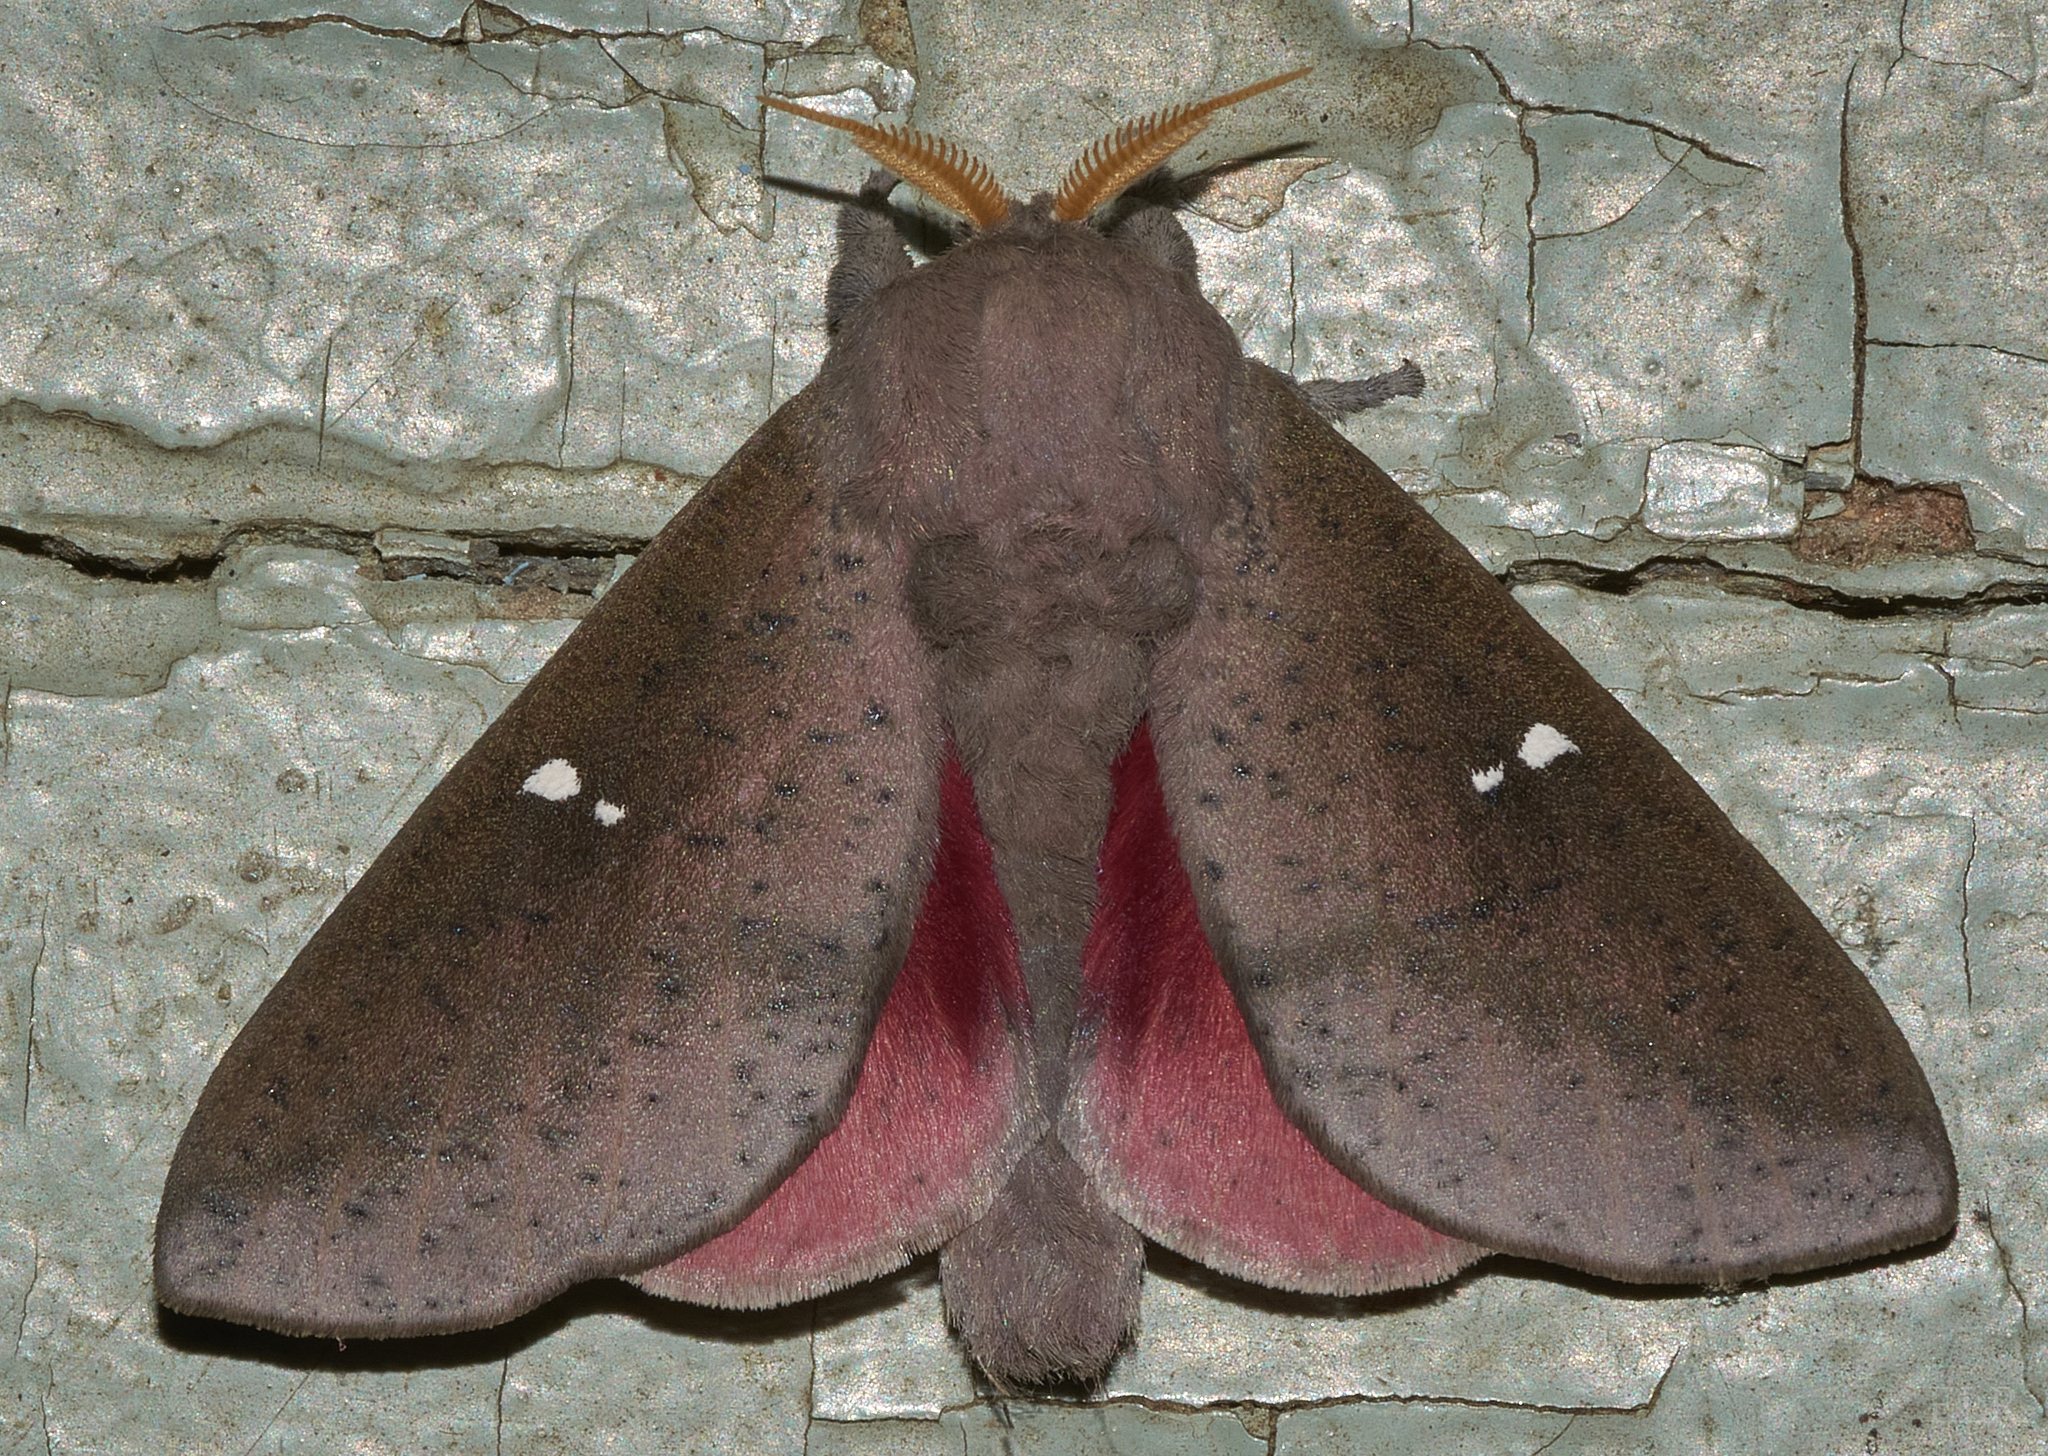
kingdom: Animalia
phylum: Arthropoda
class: Insecta
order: Lepidoptera
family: Saturniidae
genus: Syssphinx
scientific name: Syssphinx bicolor
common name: Honey locust moth
